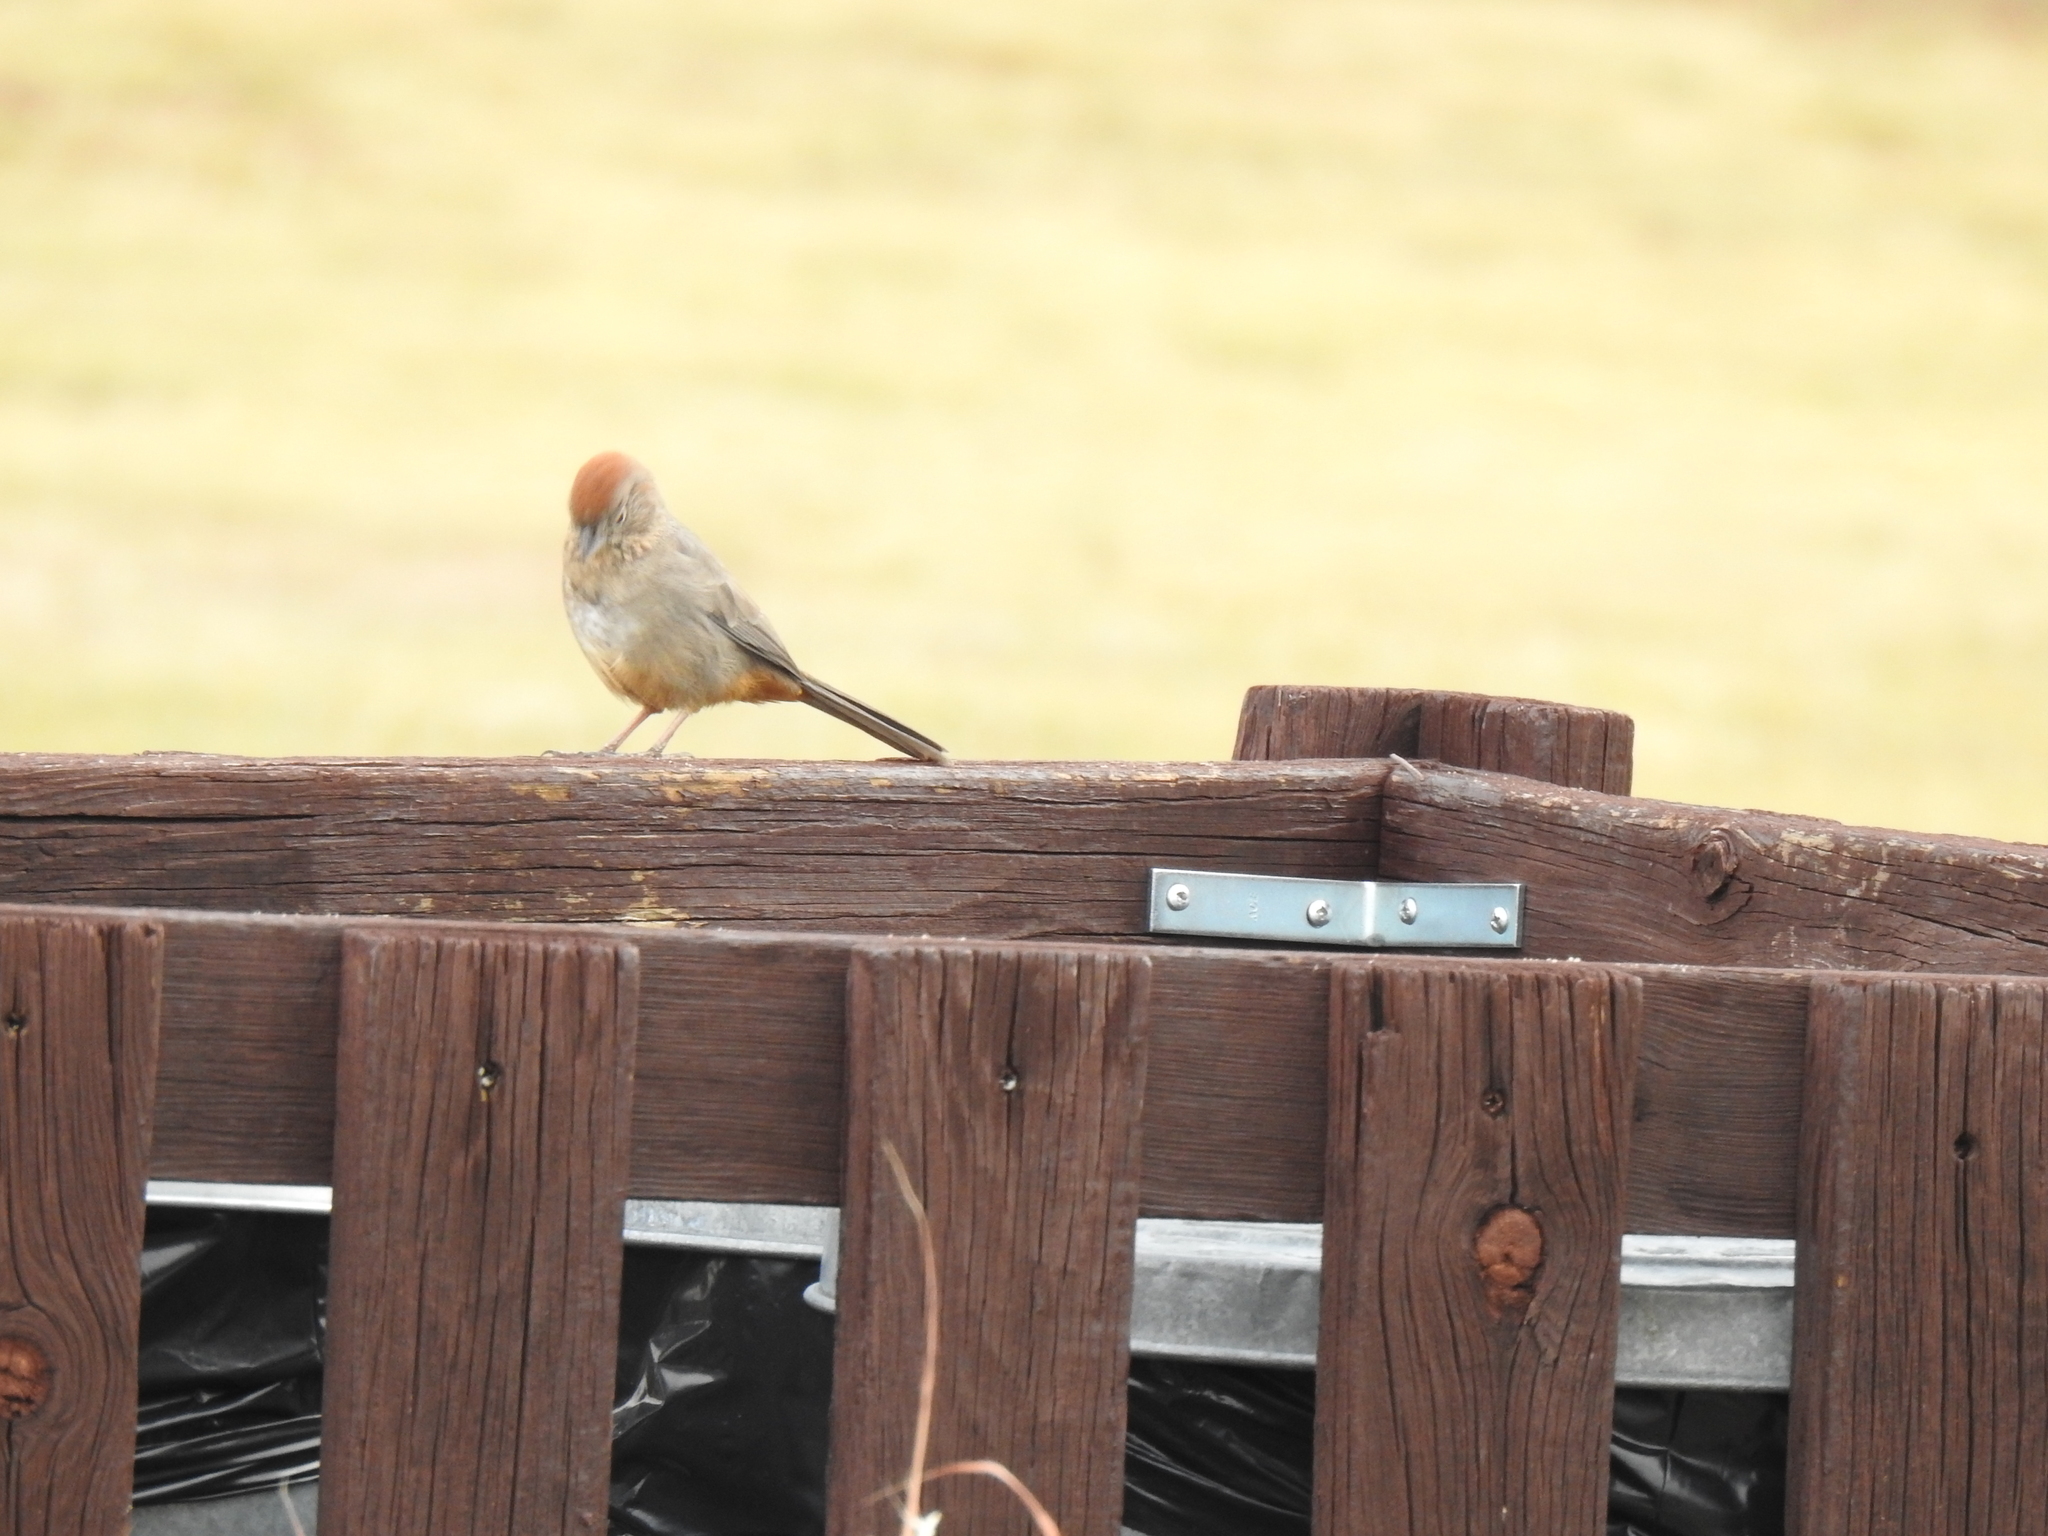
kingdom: Animalia
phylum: Chordata
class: Aves
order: Passeriformes
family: Passerellidae
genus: Melozone
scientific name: Melozone fusca
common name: Canyon towhee
